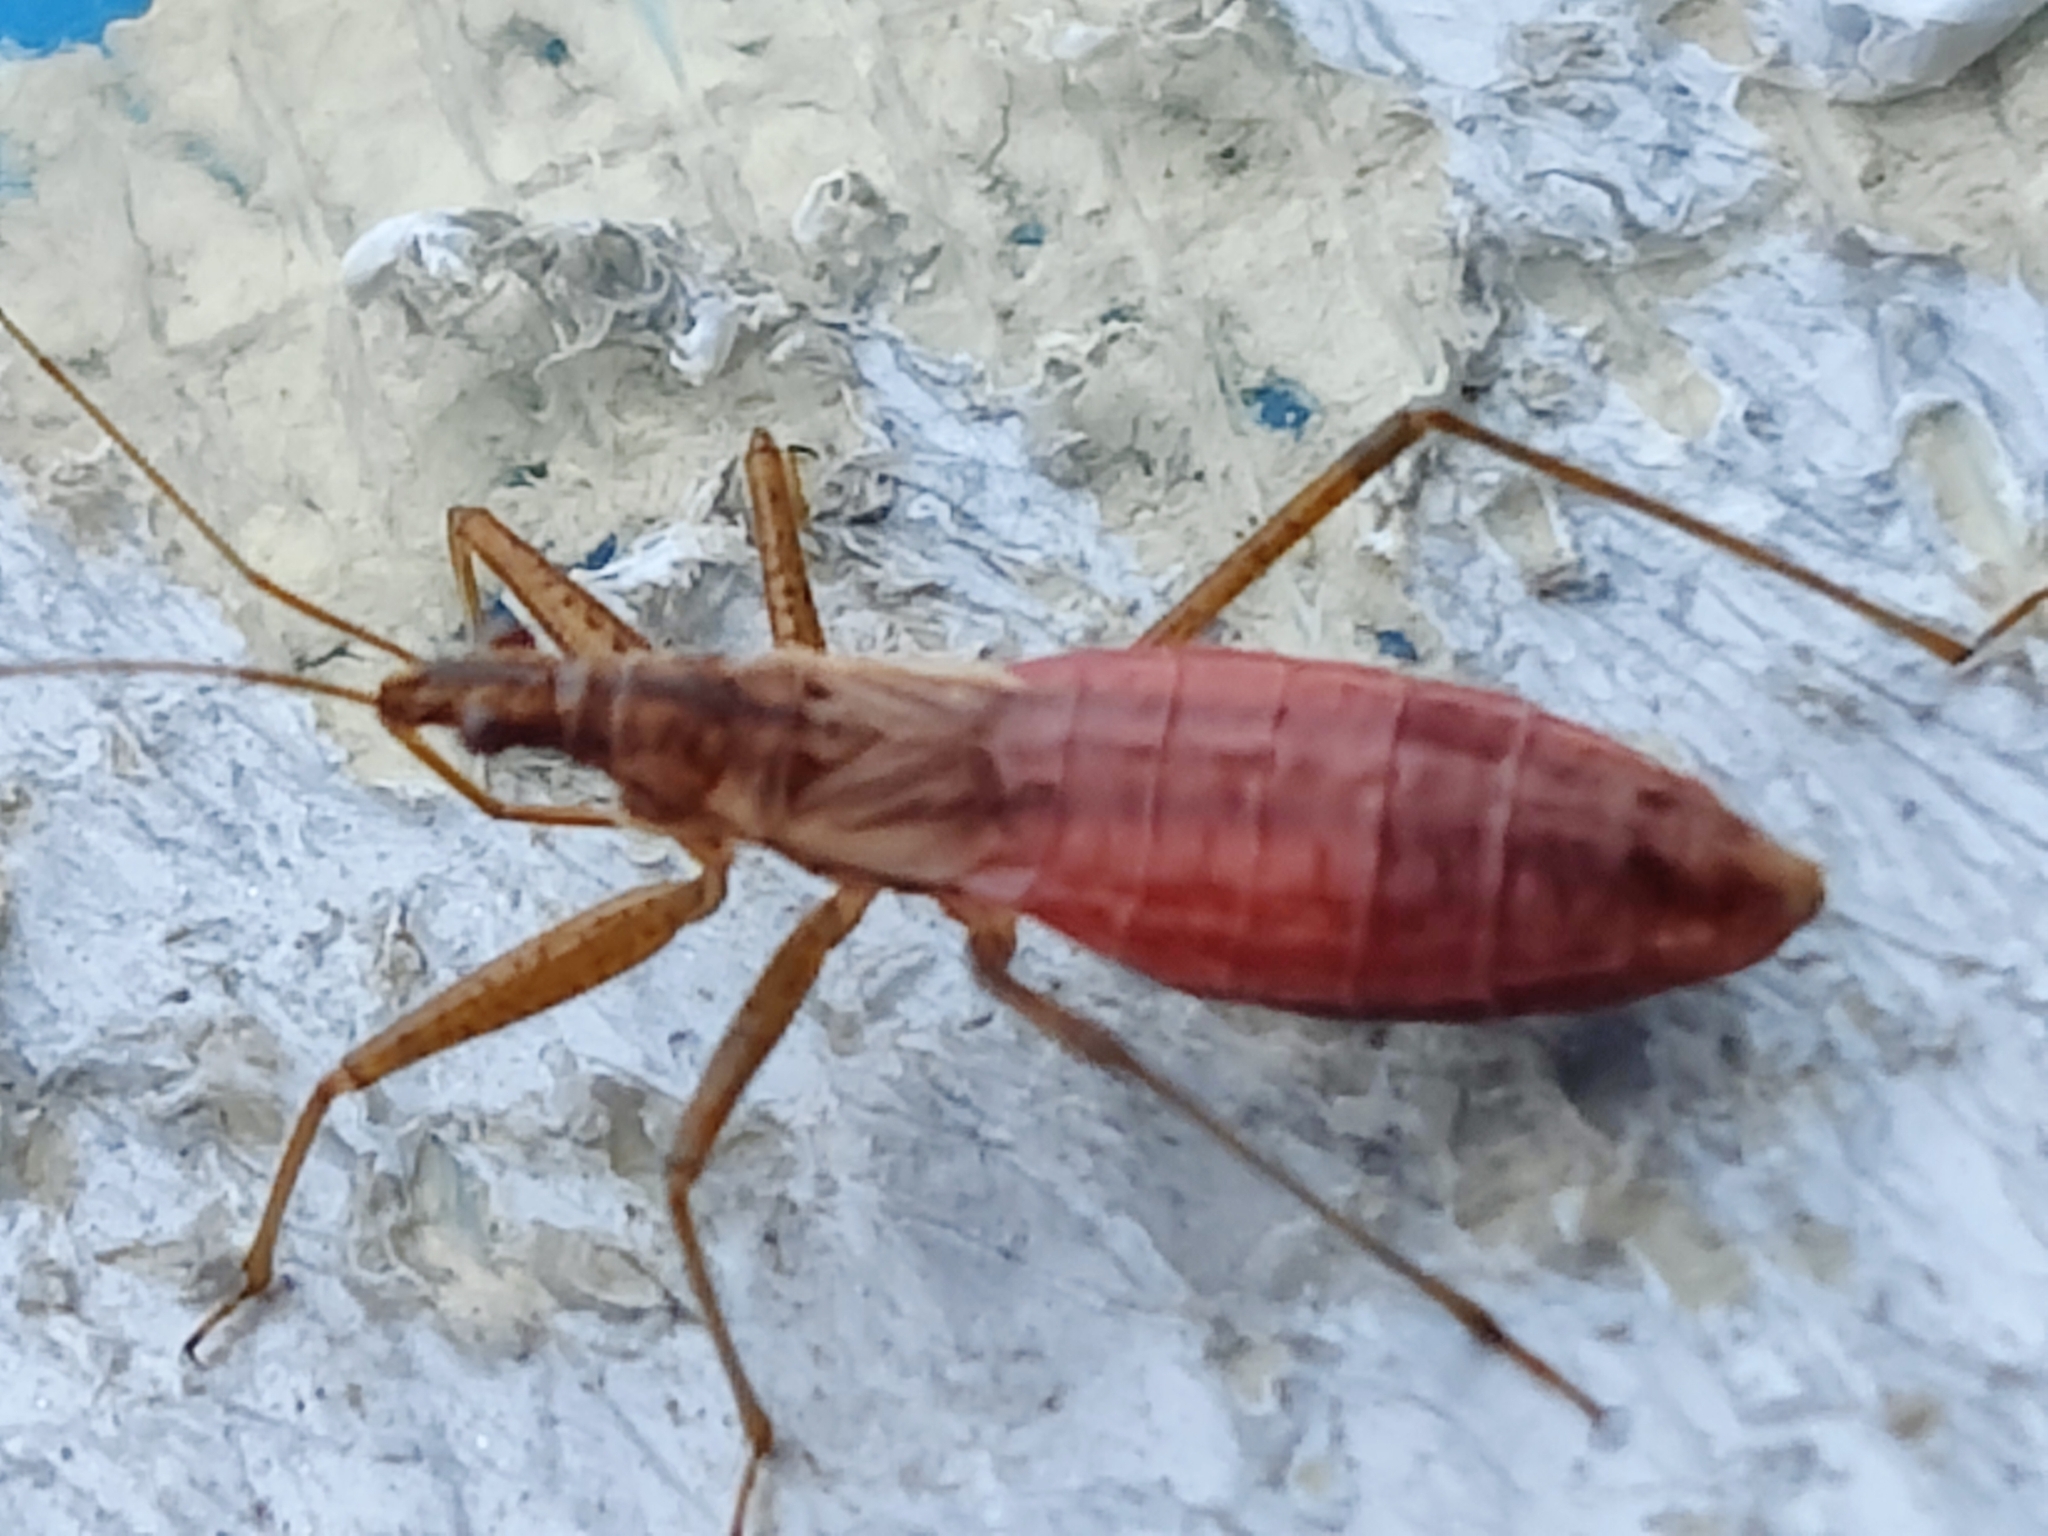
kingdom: Animalia
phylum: Arthropoda
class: Insecta
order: Hemiptera
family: Nabidae
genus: Nabis
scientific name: Nabis limbatus
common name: Marsh damselbug
